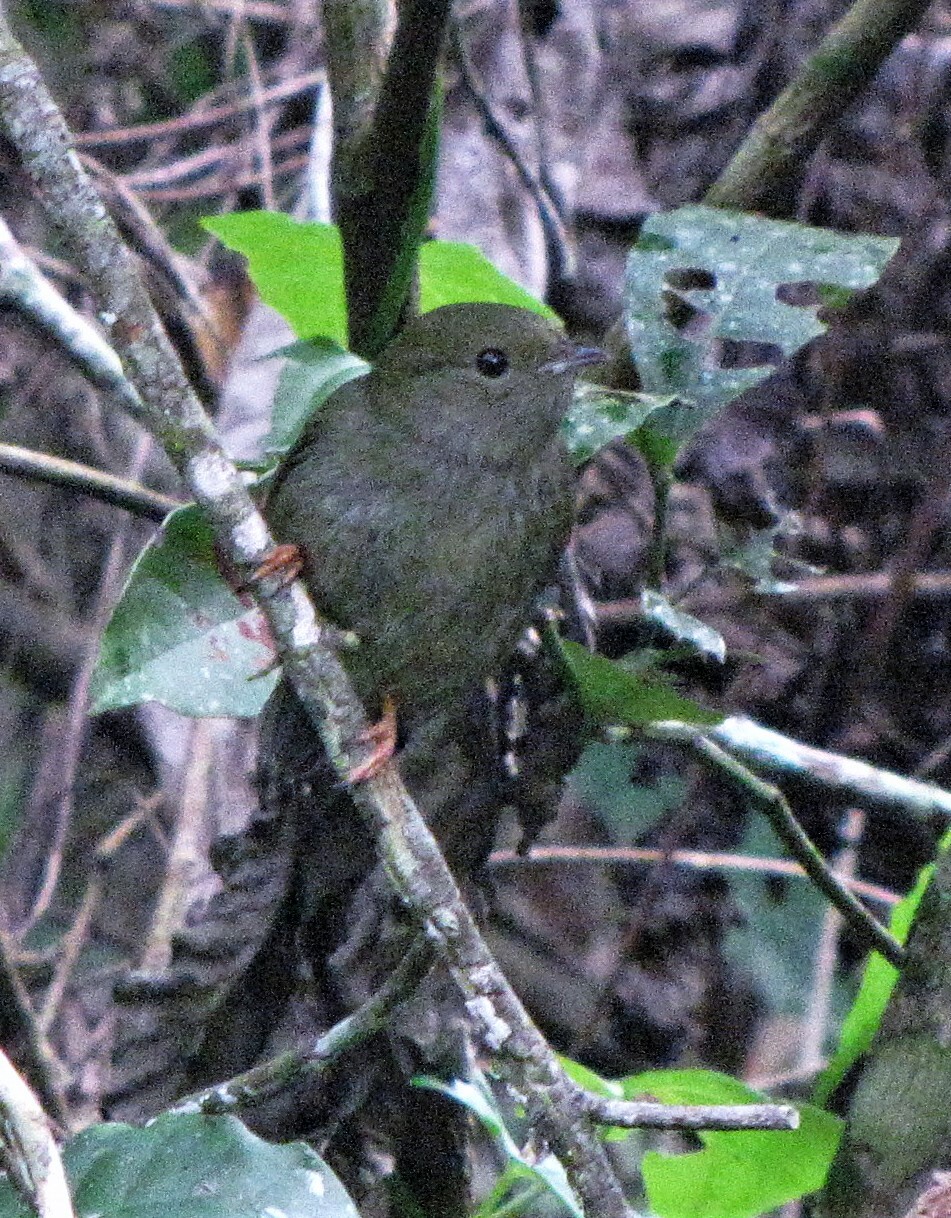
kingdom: Animalia
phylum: Chordata
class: Aves
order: Passeriformes
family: Pipridae
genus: Manacus
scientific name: Manacus manacus
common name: White-bearded manakin
